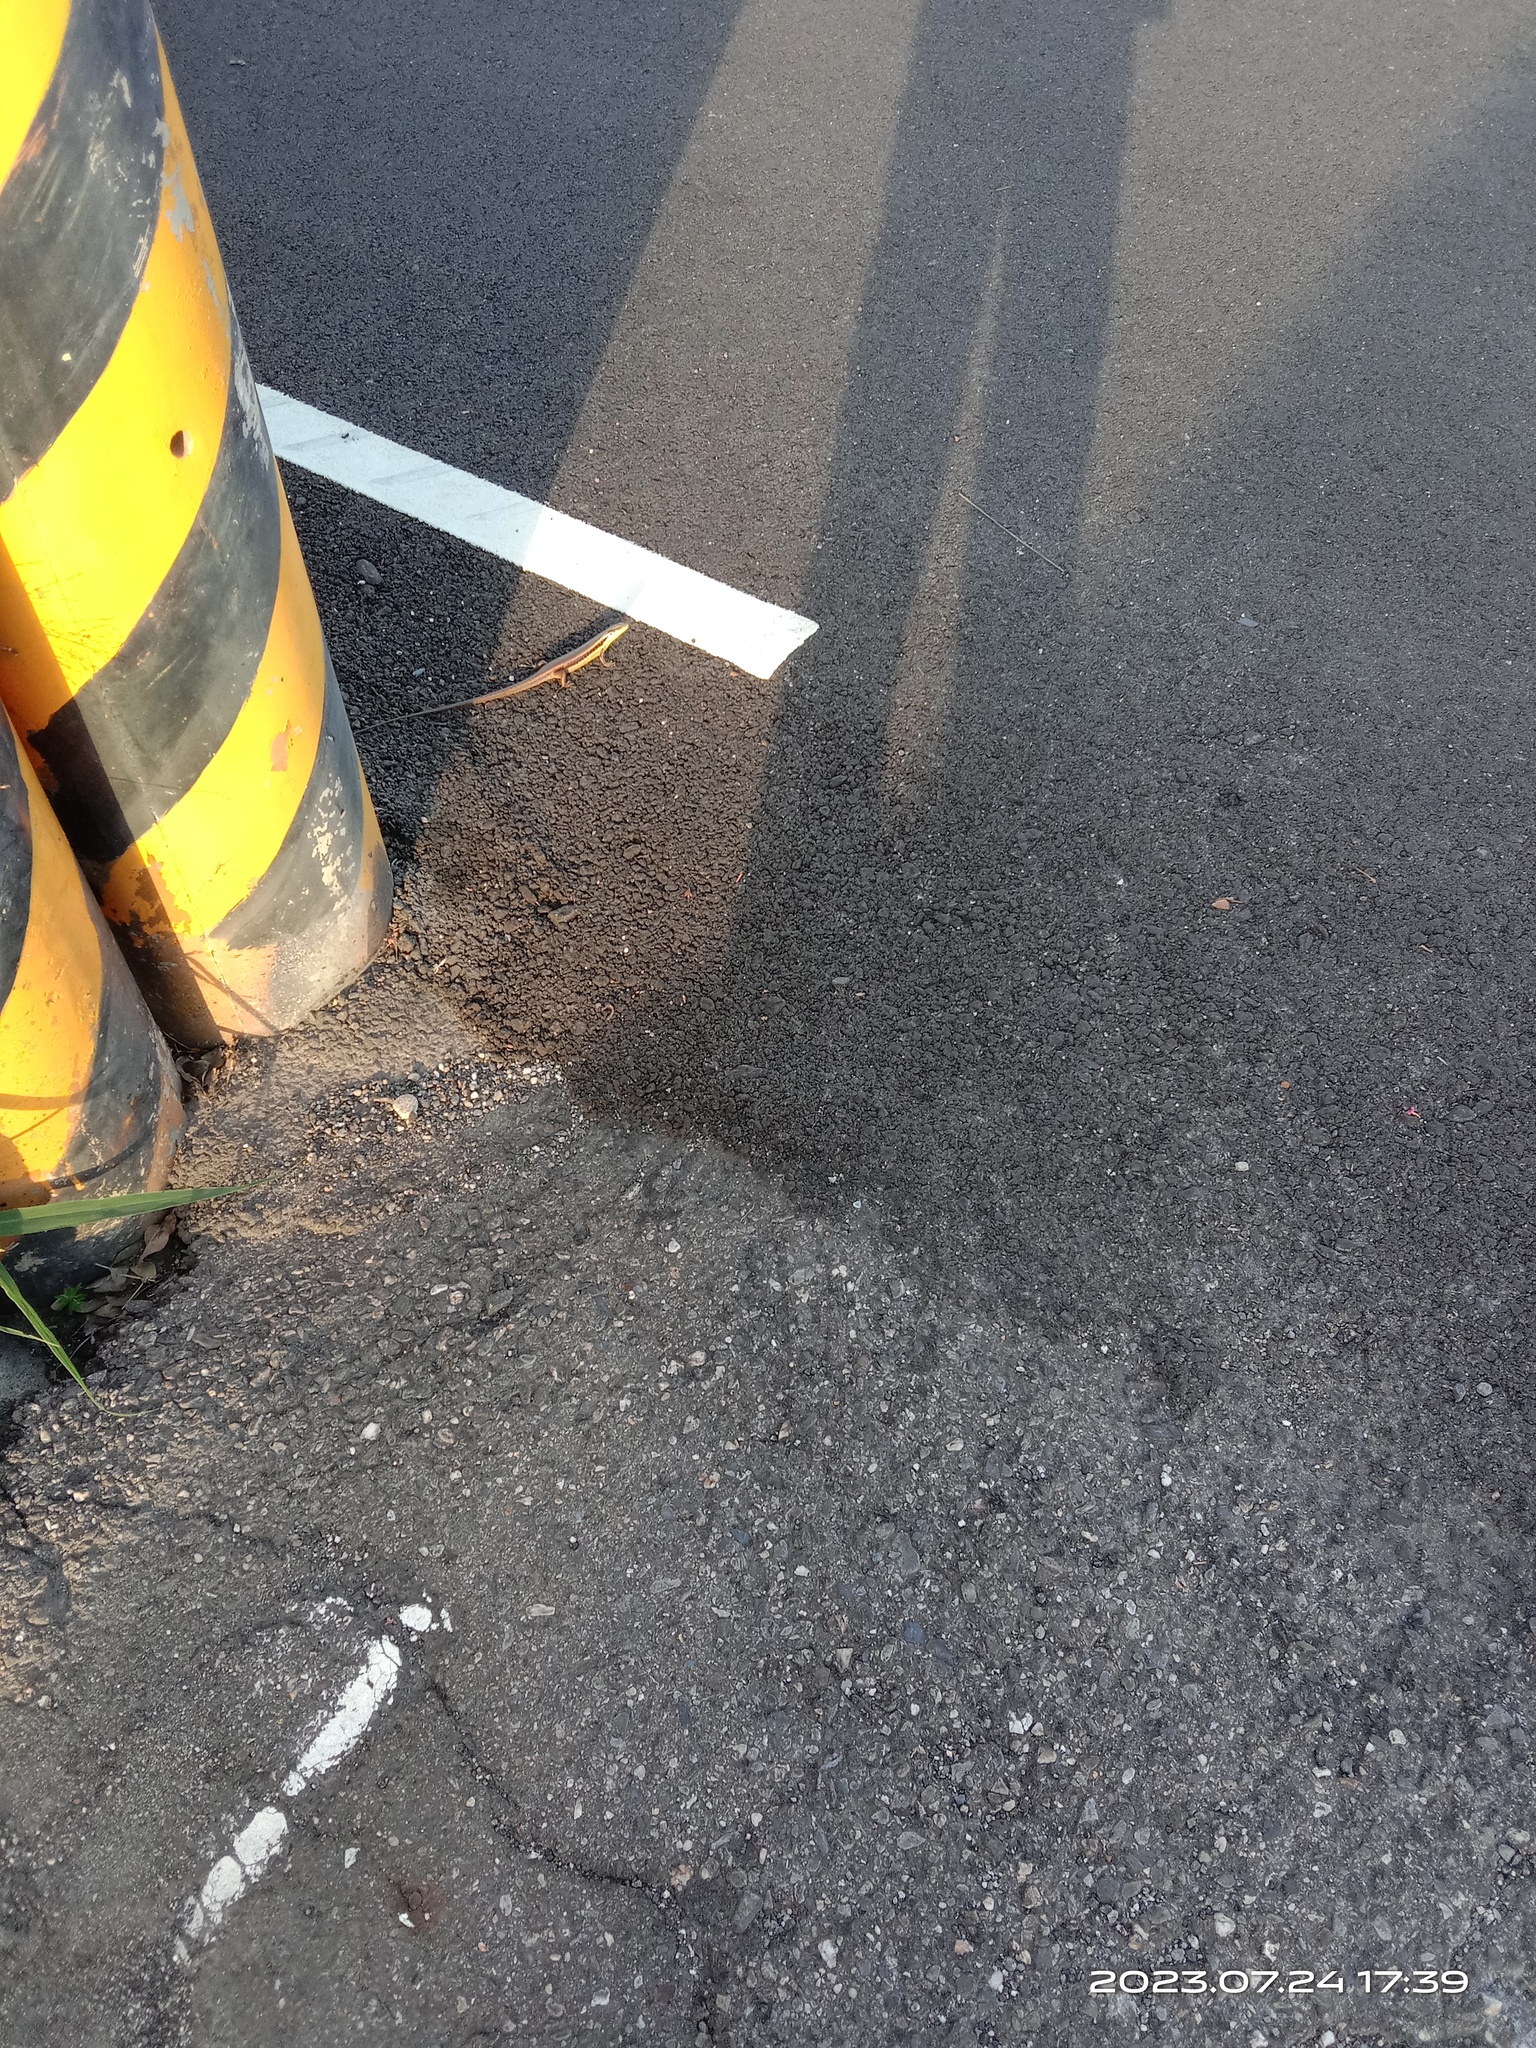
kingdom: Animalia
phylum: Chordata
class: Squamata
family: Scincidae
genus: Eutropis
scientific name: Eutropis longicaudata
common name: Long-tailed sun skink
